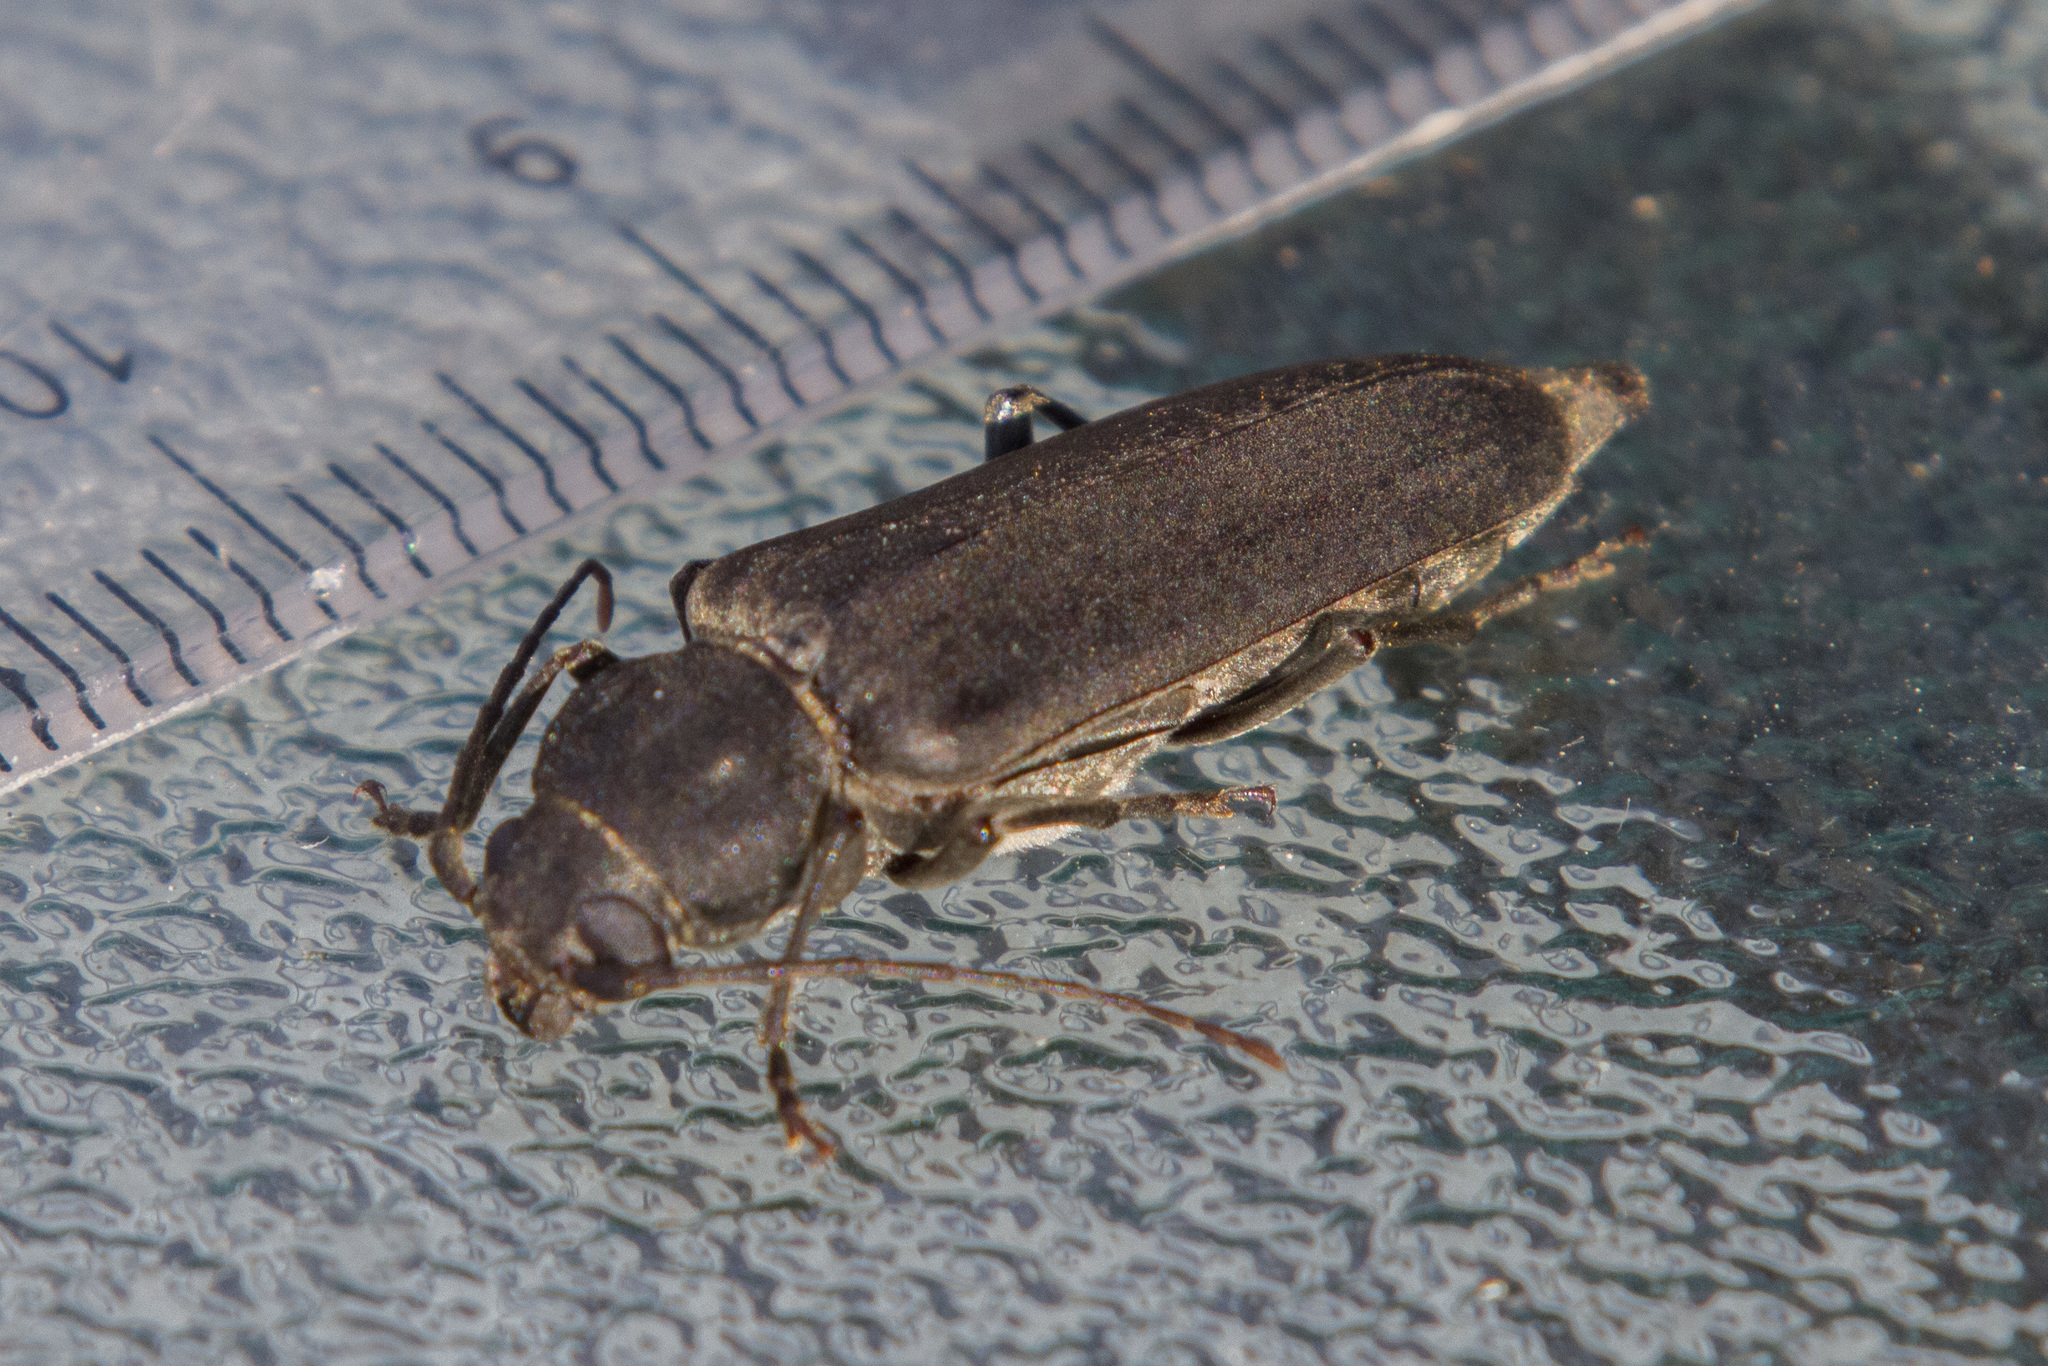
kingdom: Animalia
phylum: Arthropoda
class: Insecta
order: Coleoptera
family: Cerambycidae
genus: Arhopalus
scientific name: Arhopalus ferus
